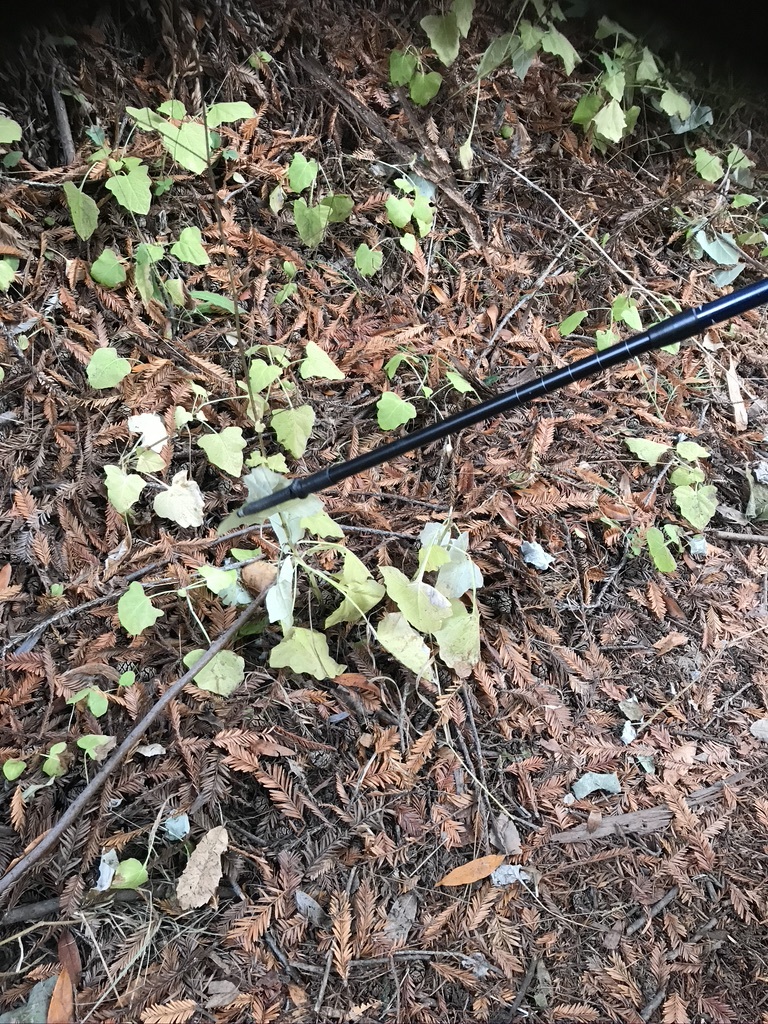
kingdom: Plantae
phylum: Tracheophyta
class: Magnoliopsida
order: Asterales
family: Asteraceae
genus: Adenocaulon
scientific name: Adenocaulon bicolor
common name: Trailplant
